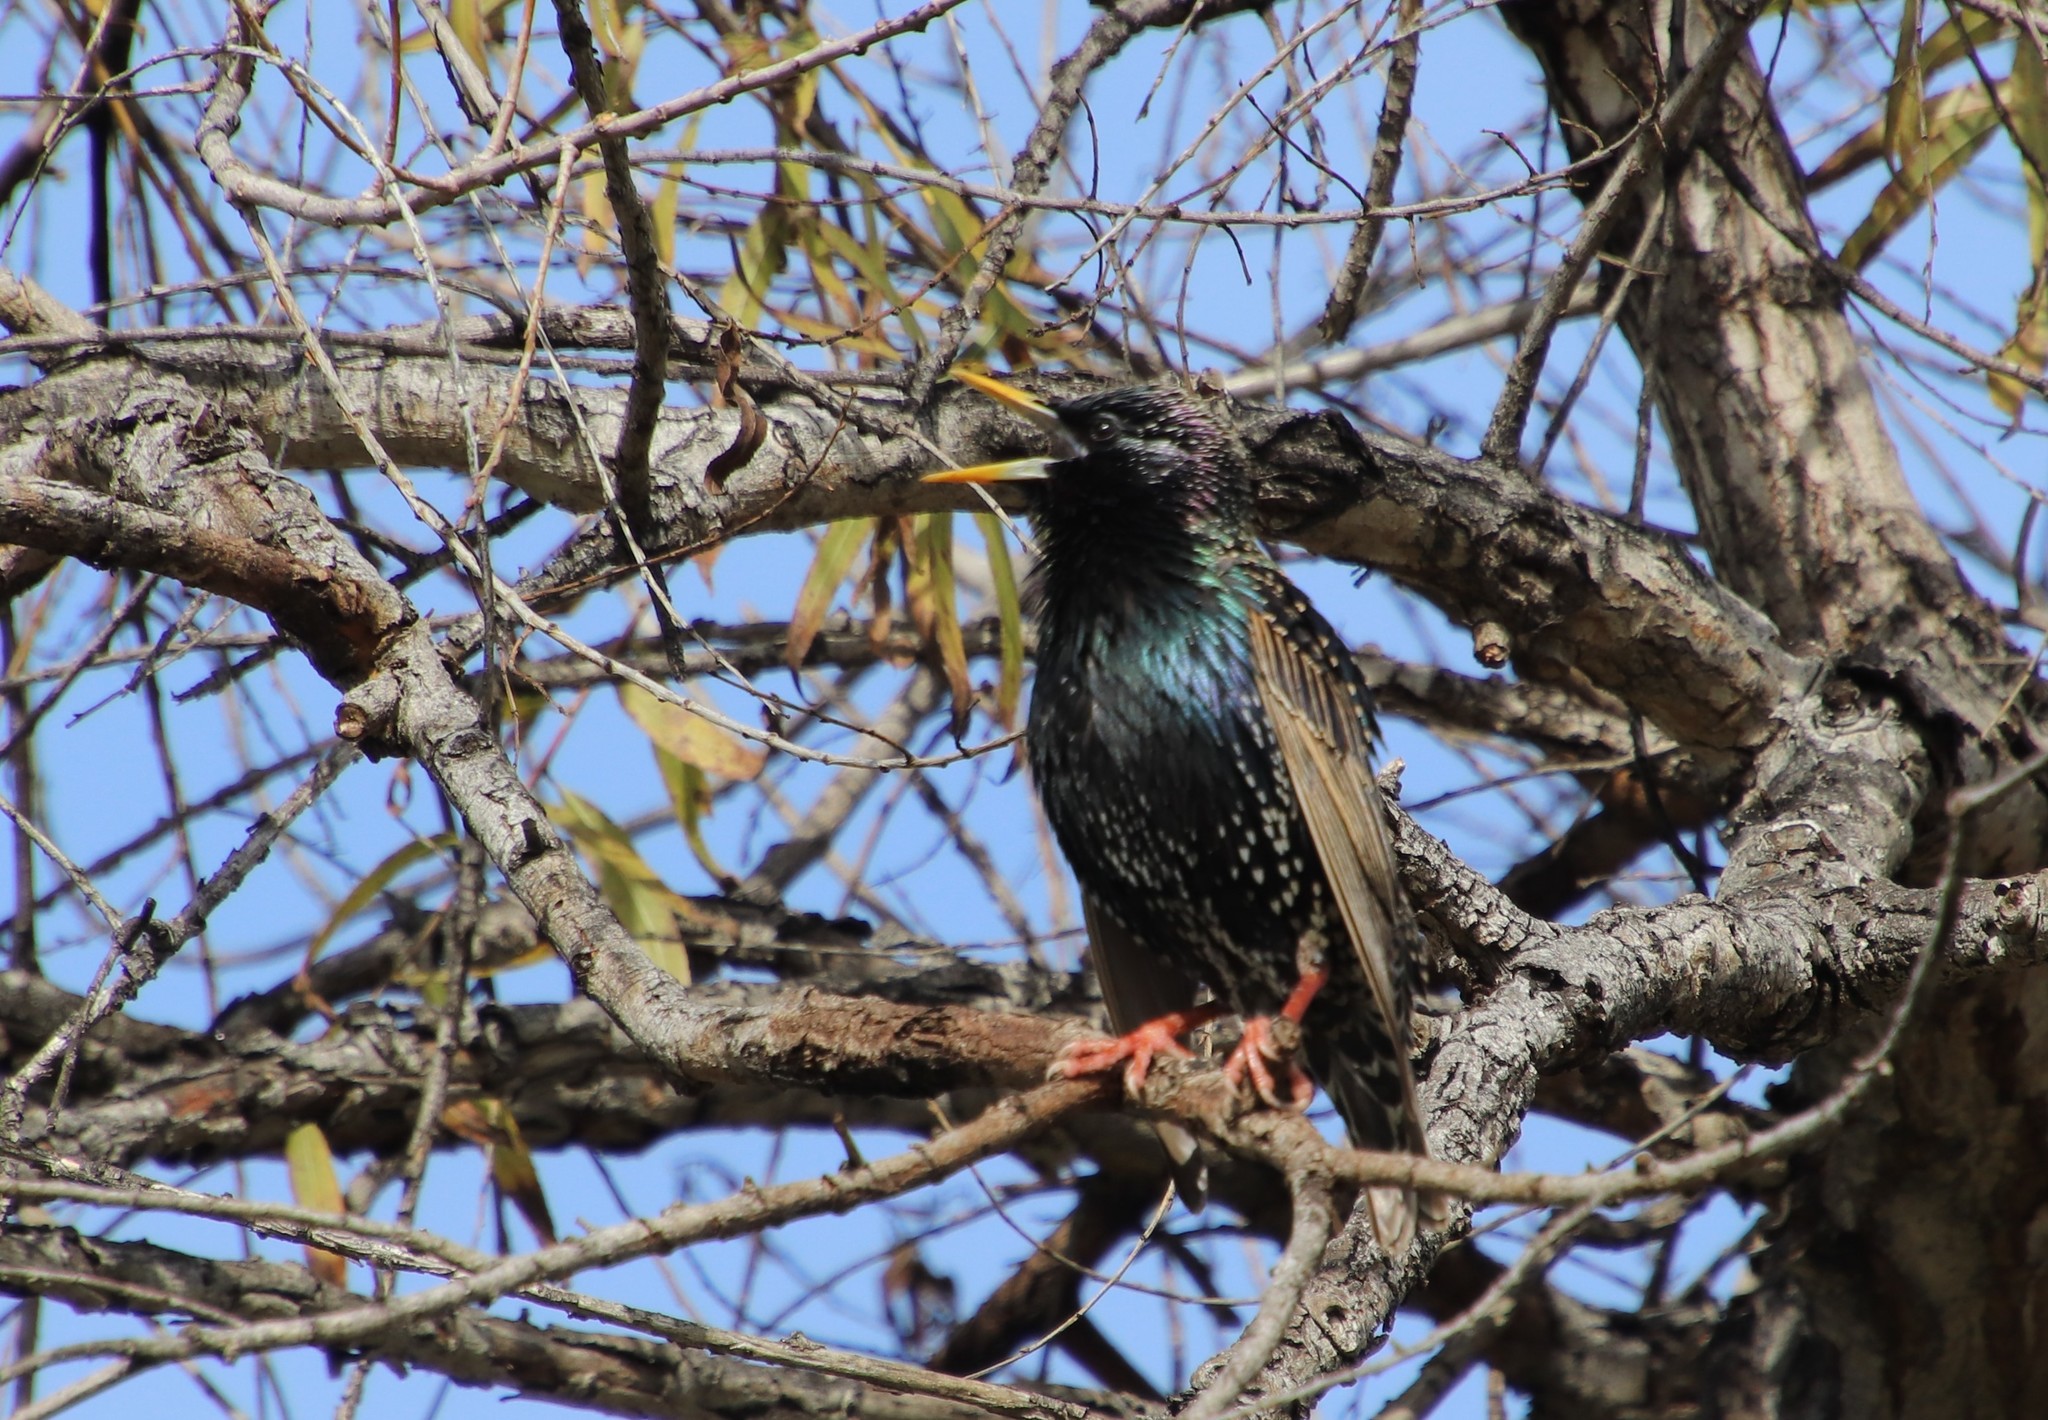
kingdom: Animalia
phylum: Chordata
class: Aves
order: Passeriformes
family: Sturnidae
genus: Sturnus
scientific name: Sturnus vulgaris
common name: Common starling
